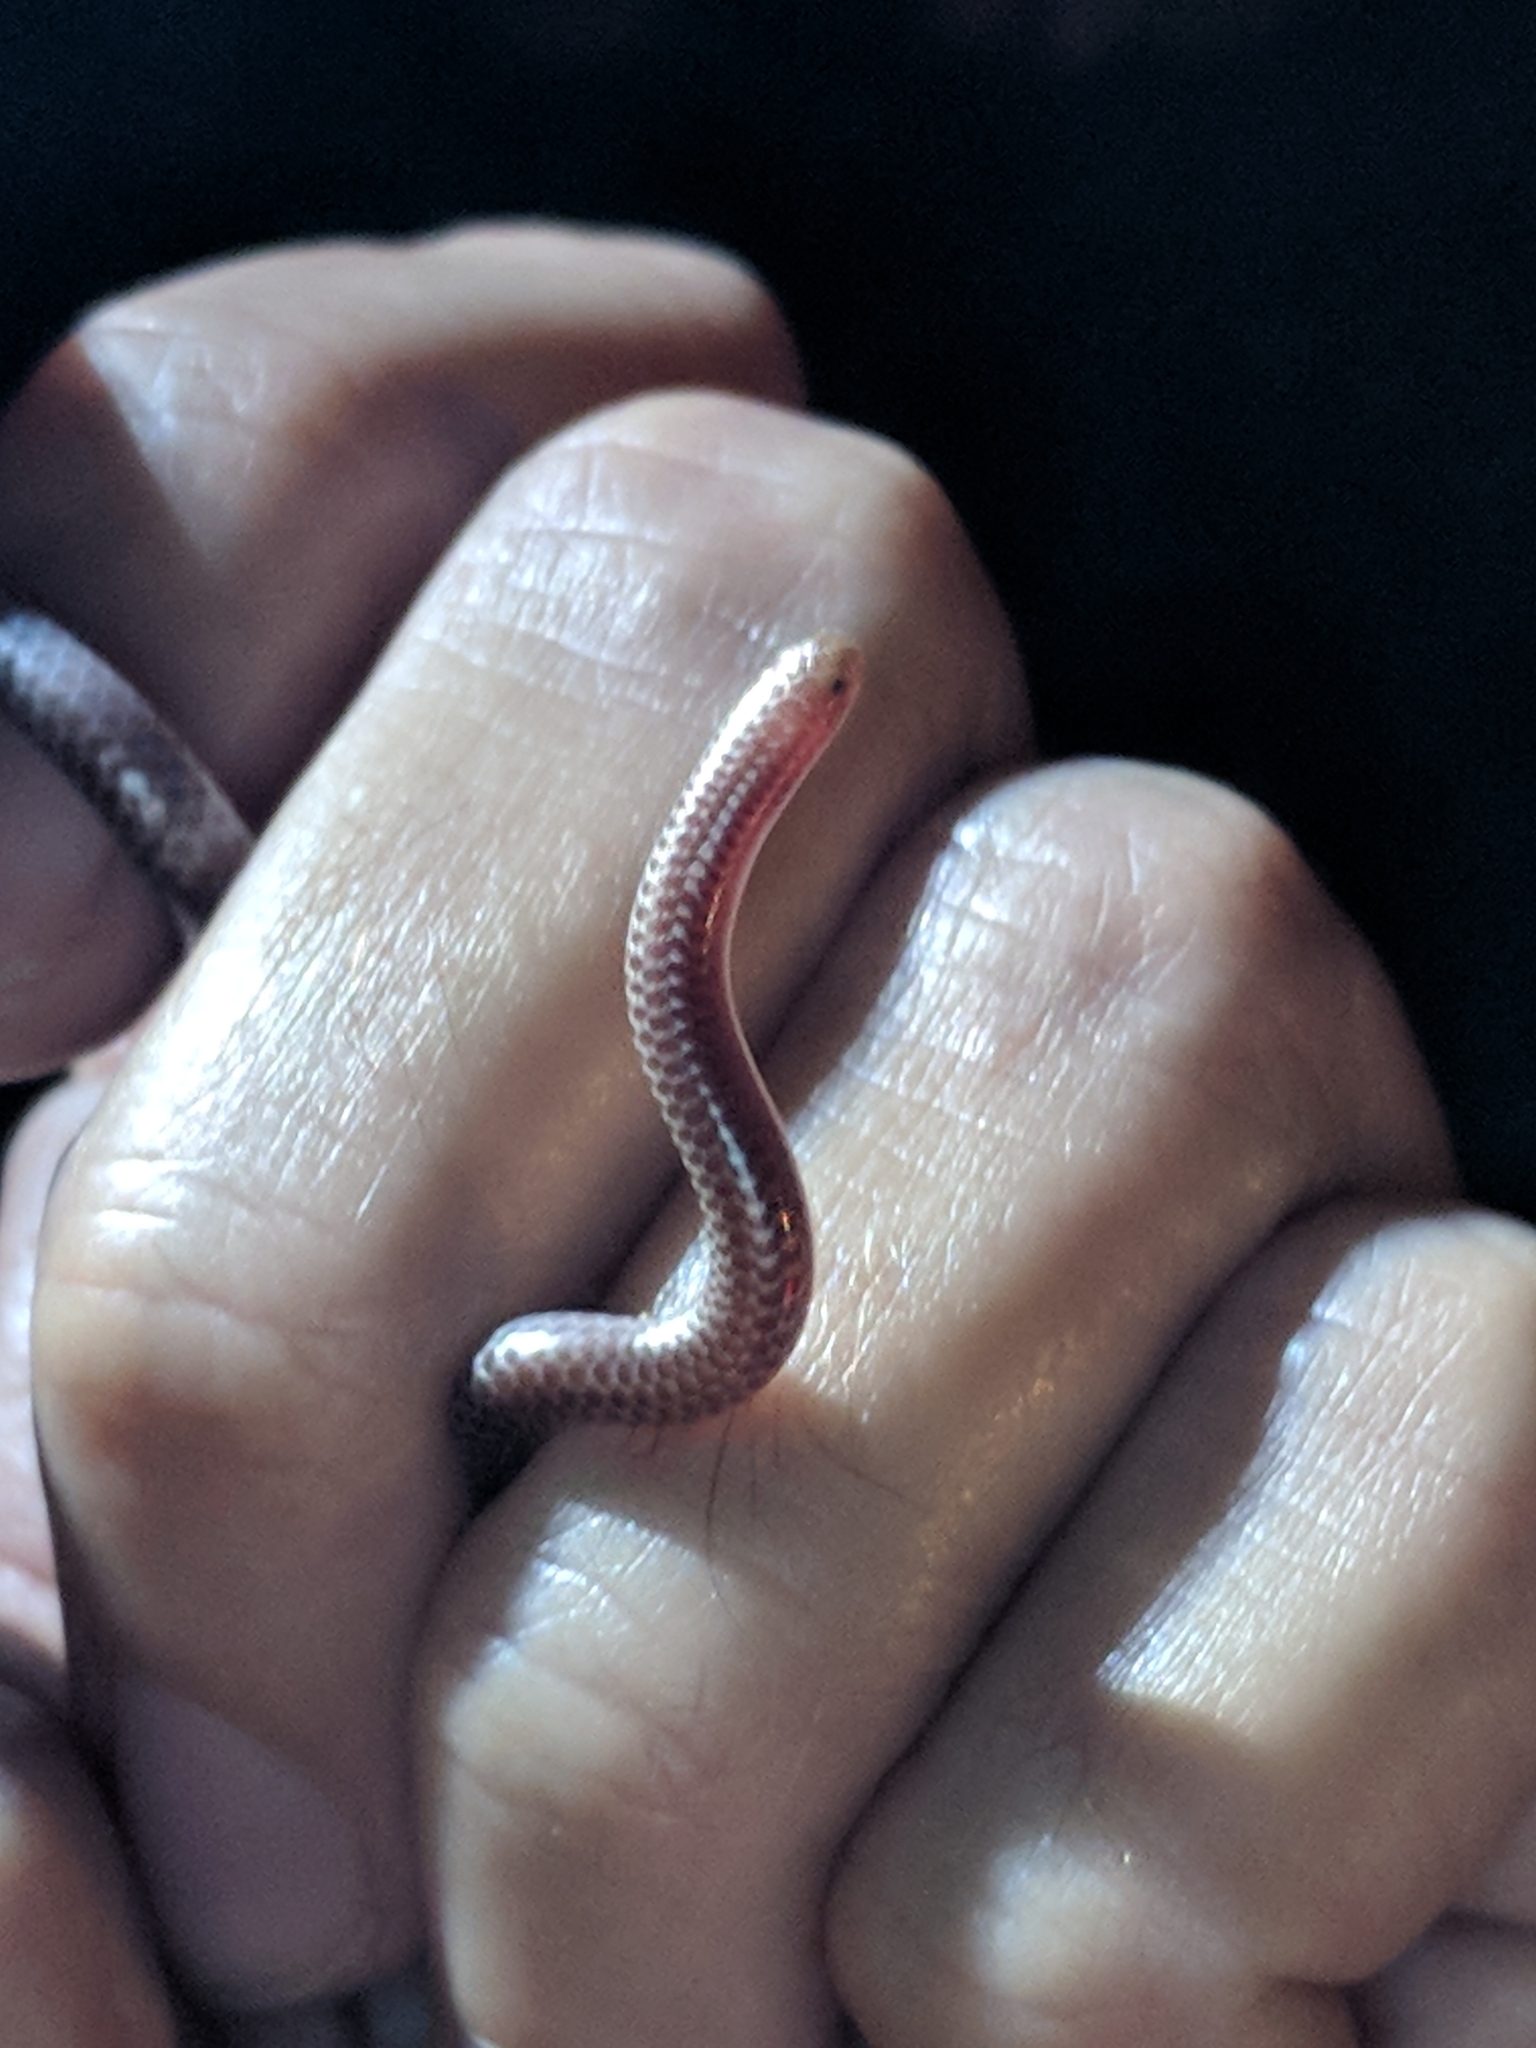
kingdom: Animalia
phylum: Chordata
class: Squamata
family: Leptotyphlopidae
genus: Rena
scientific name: Rena dulcis
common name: Texas blind snake
